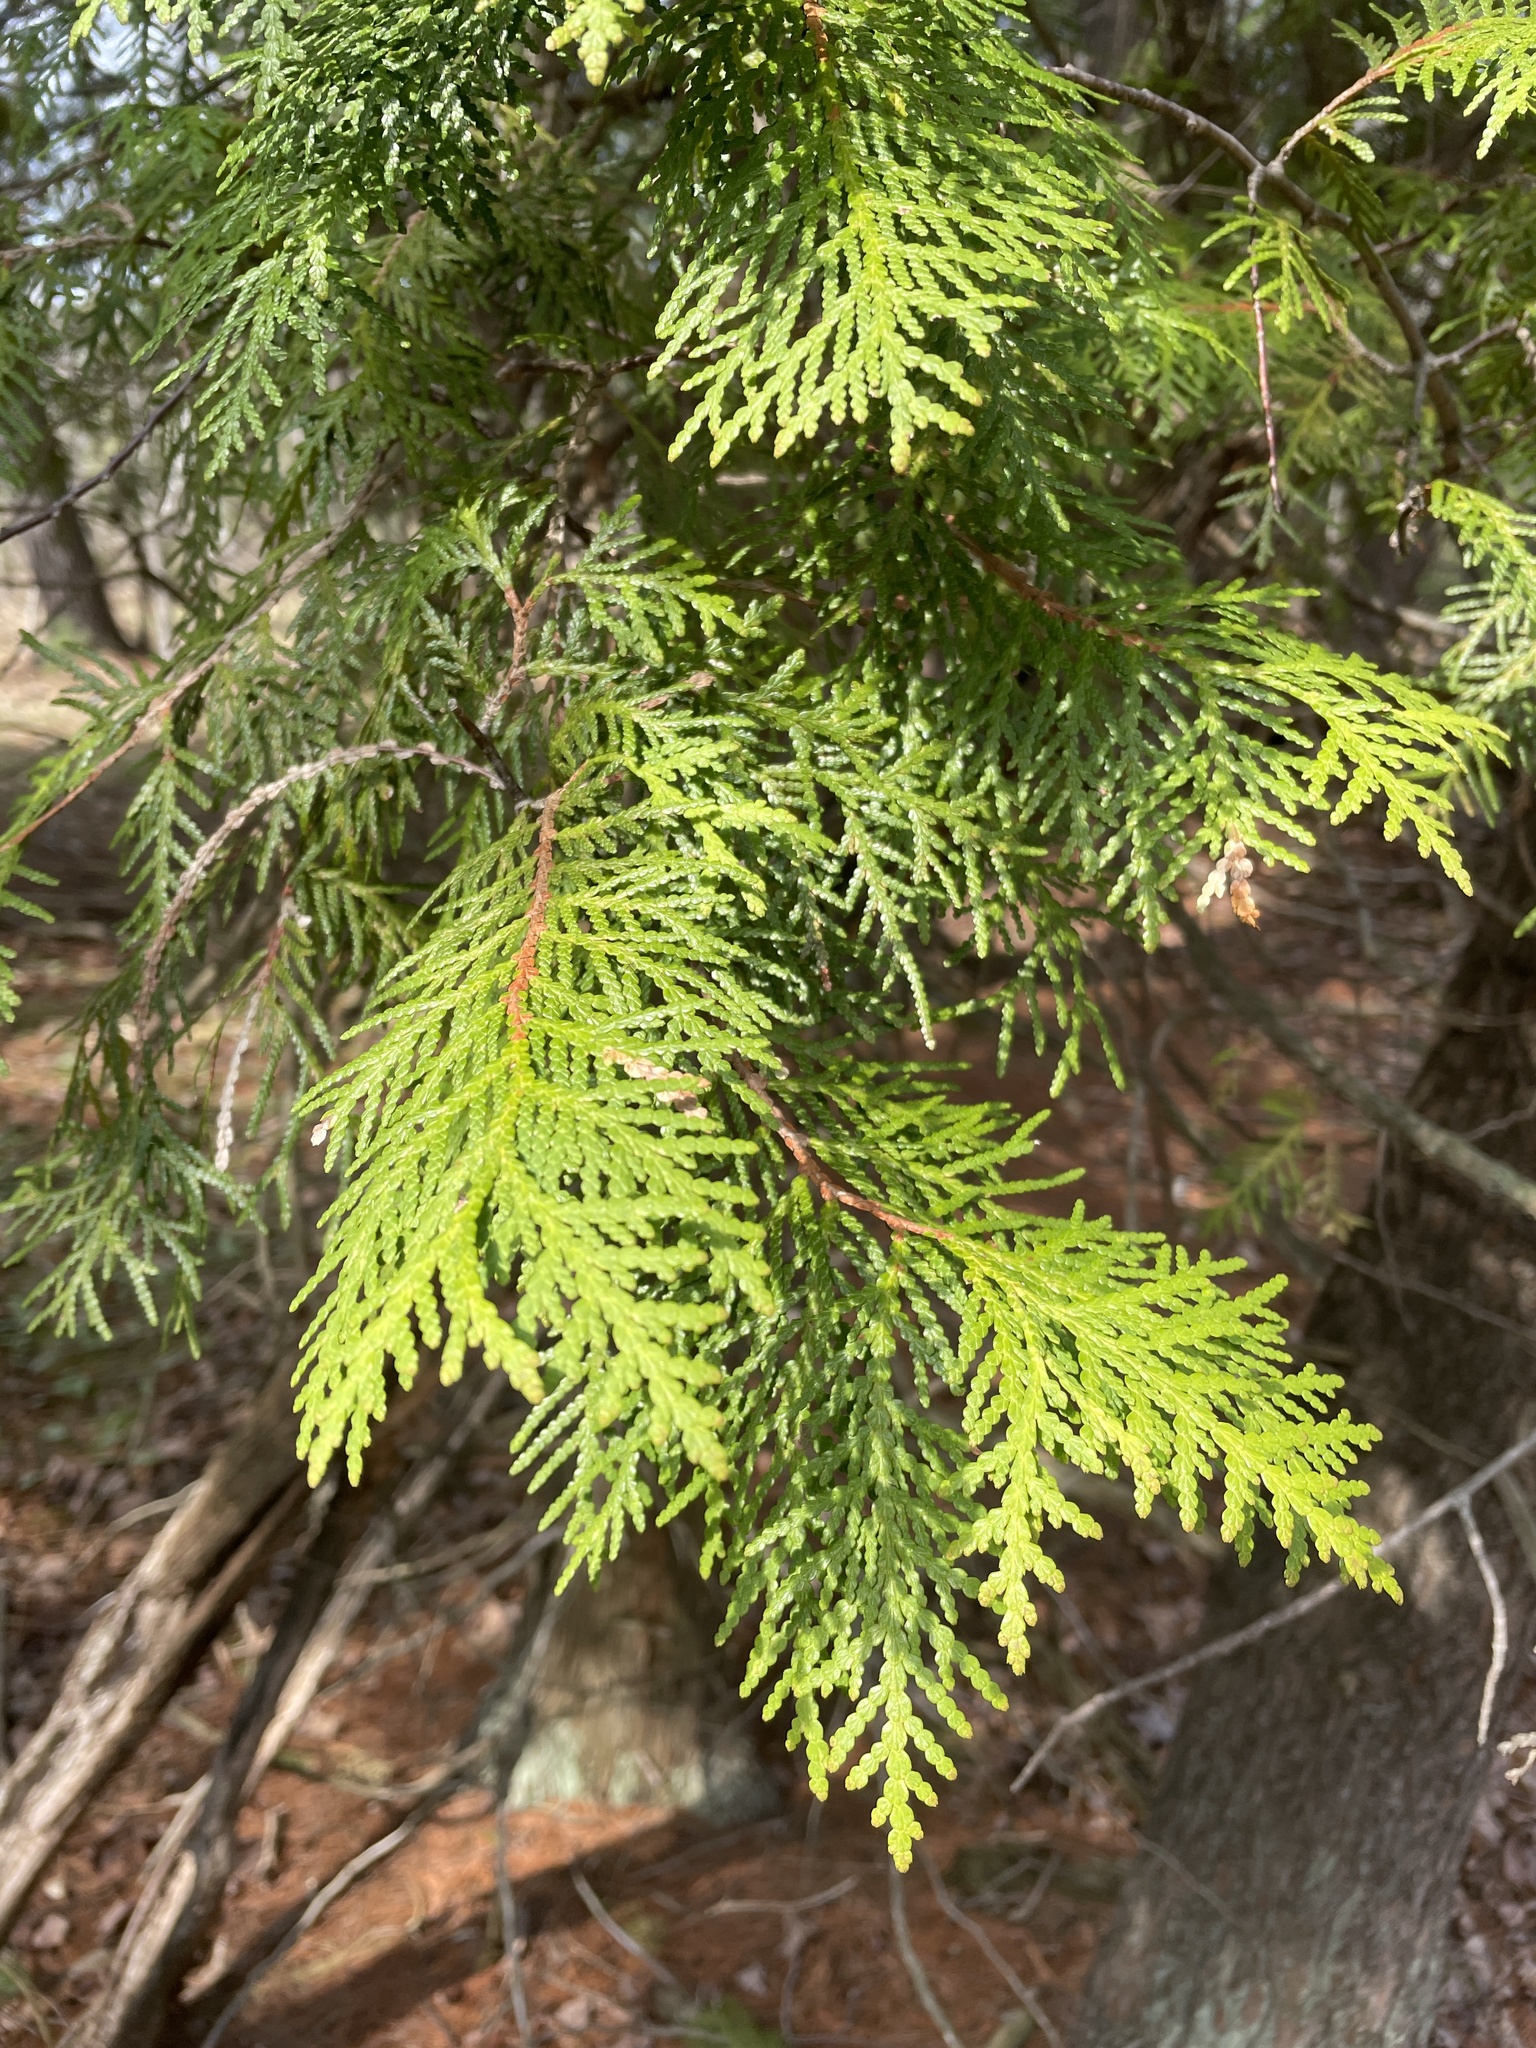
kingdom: Plantae
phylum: Tracheophyta
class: Pinopsida
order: Pinales
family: Cupressaceae
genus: Thuja
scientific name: Thuja occidentalis
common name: Northern white-cedar
